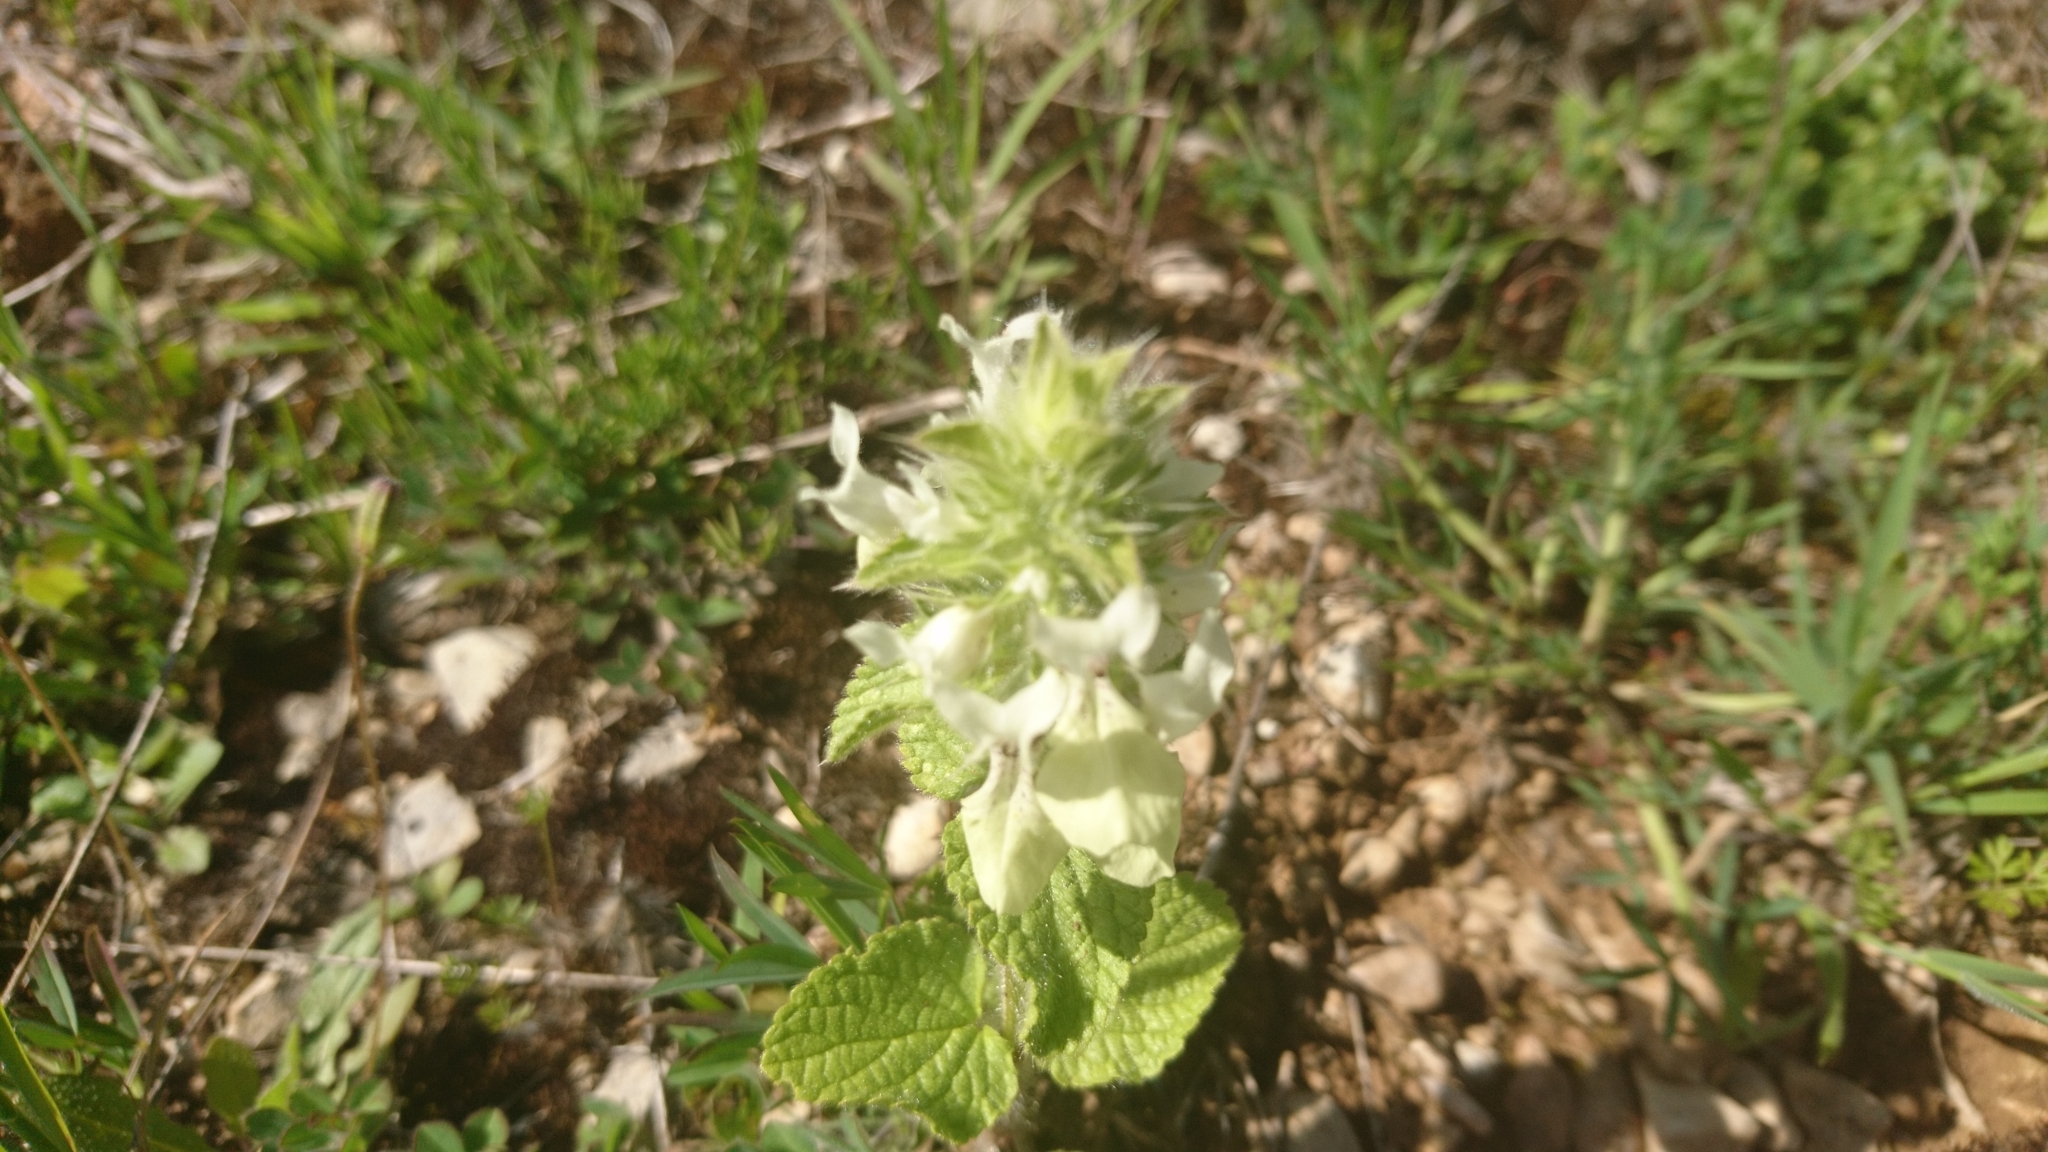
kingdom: Plantae
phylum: Tracheophyta
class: Magnoliopsida
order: Lamiales
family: Lamiaceae
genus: Stachys
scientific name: Stachys ocymastrum
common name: Italian hedgenettle
